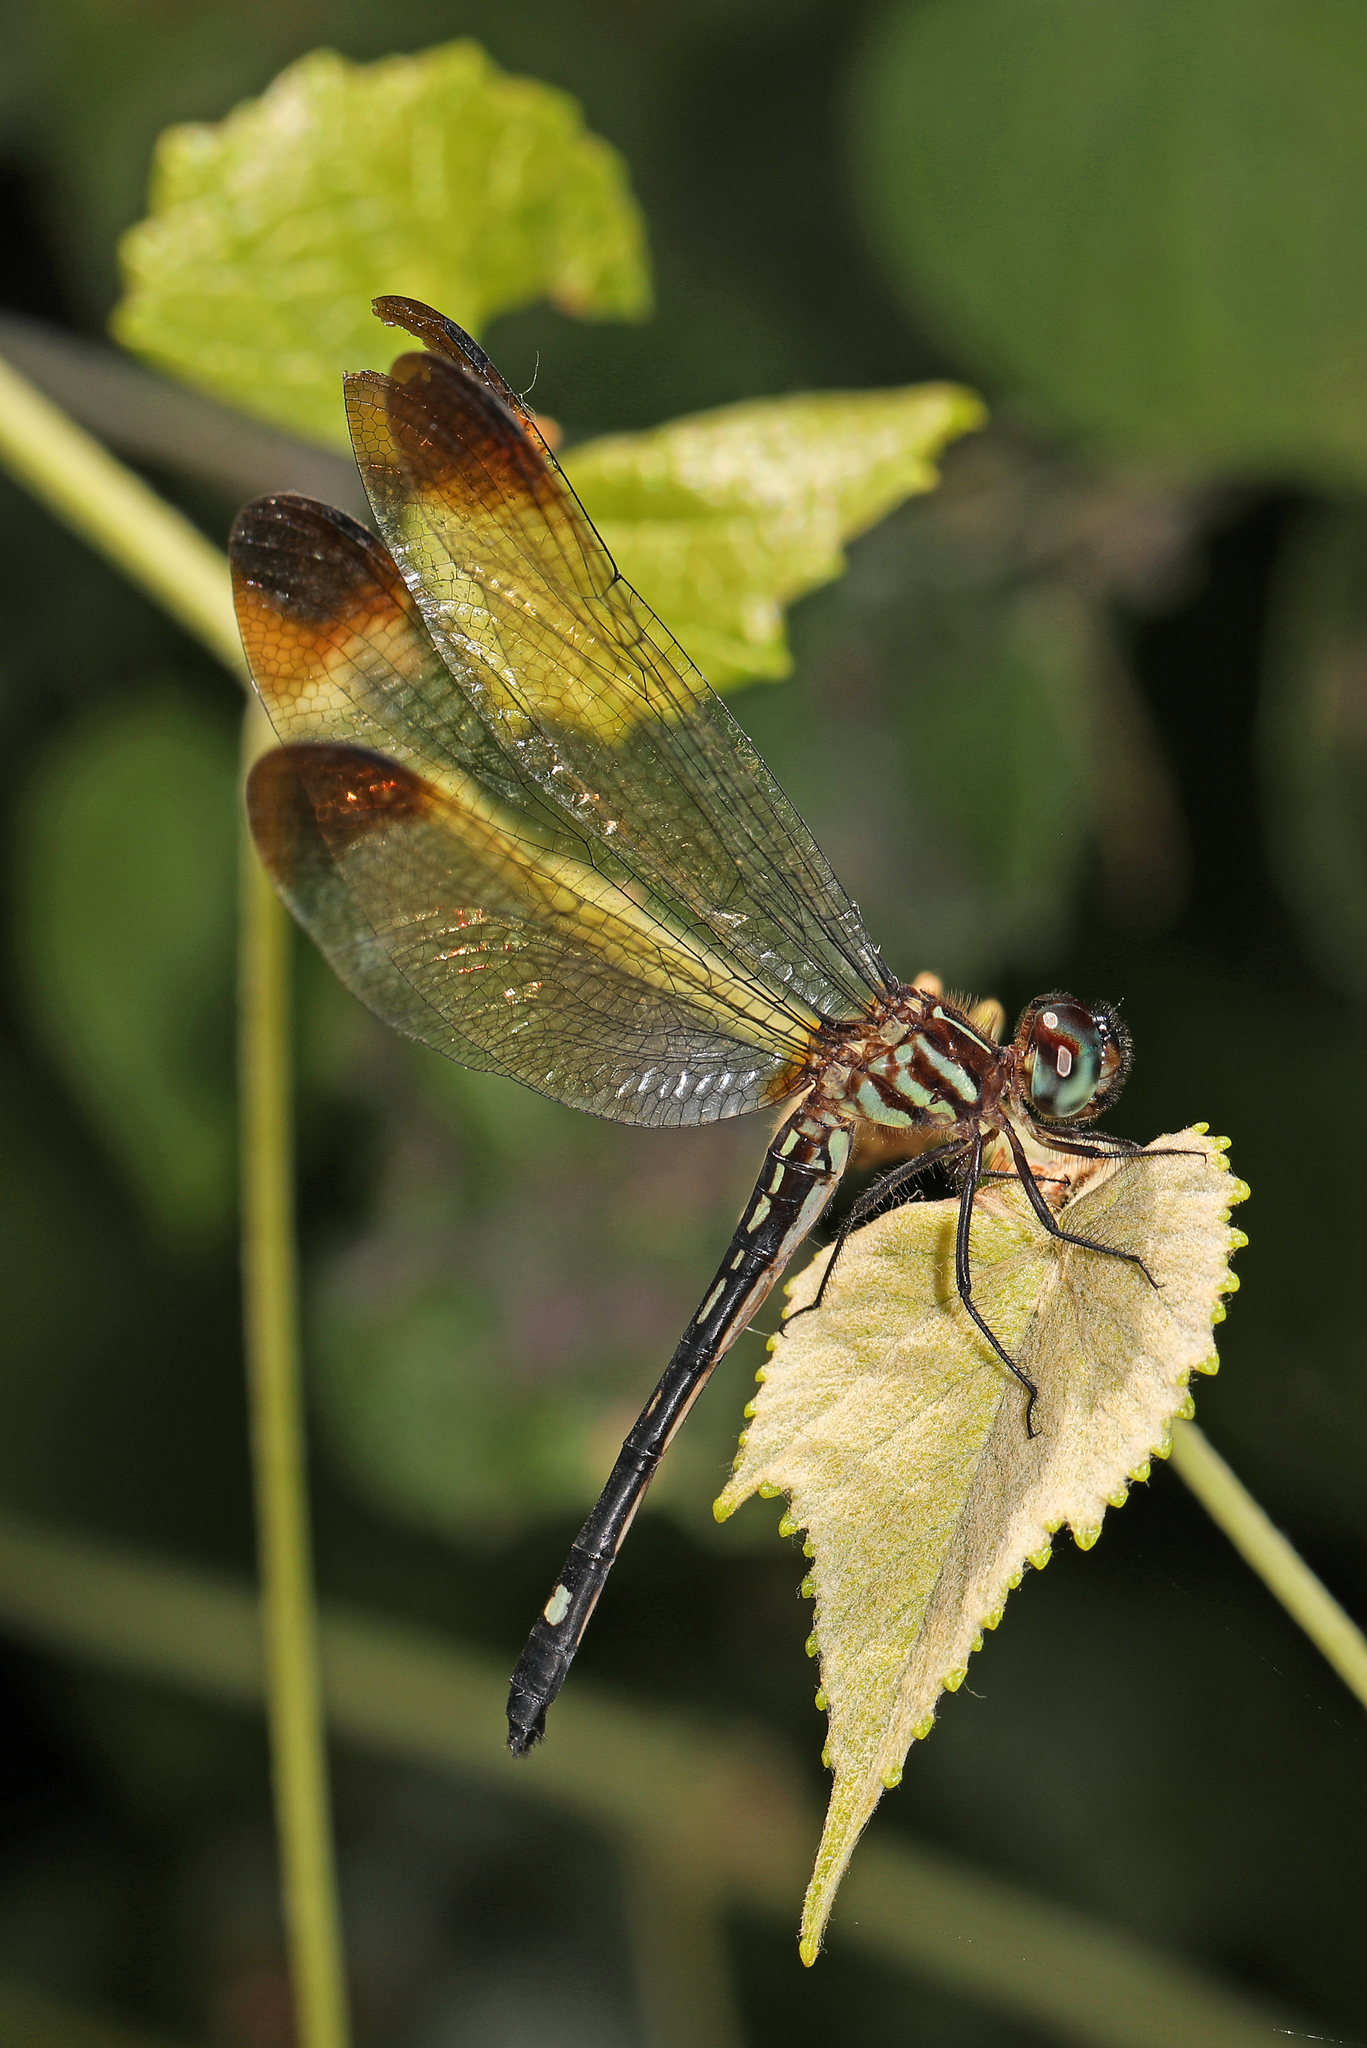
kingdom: Animalia
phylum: Arthropoda
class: Insecta
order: Odonata
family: Libellulidae
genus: Macrothemis
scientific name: Macrothemis inequiunguis
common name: Jade-striped sylph
